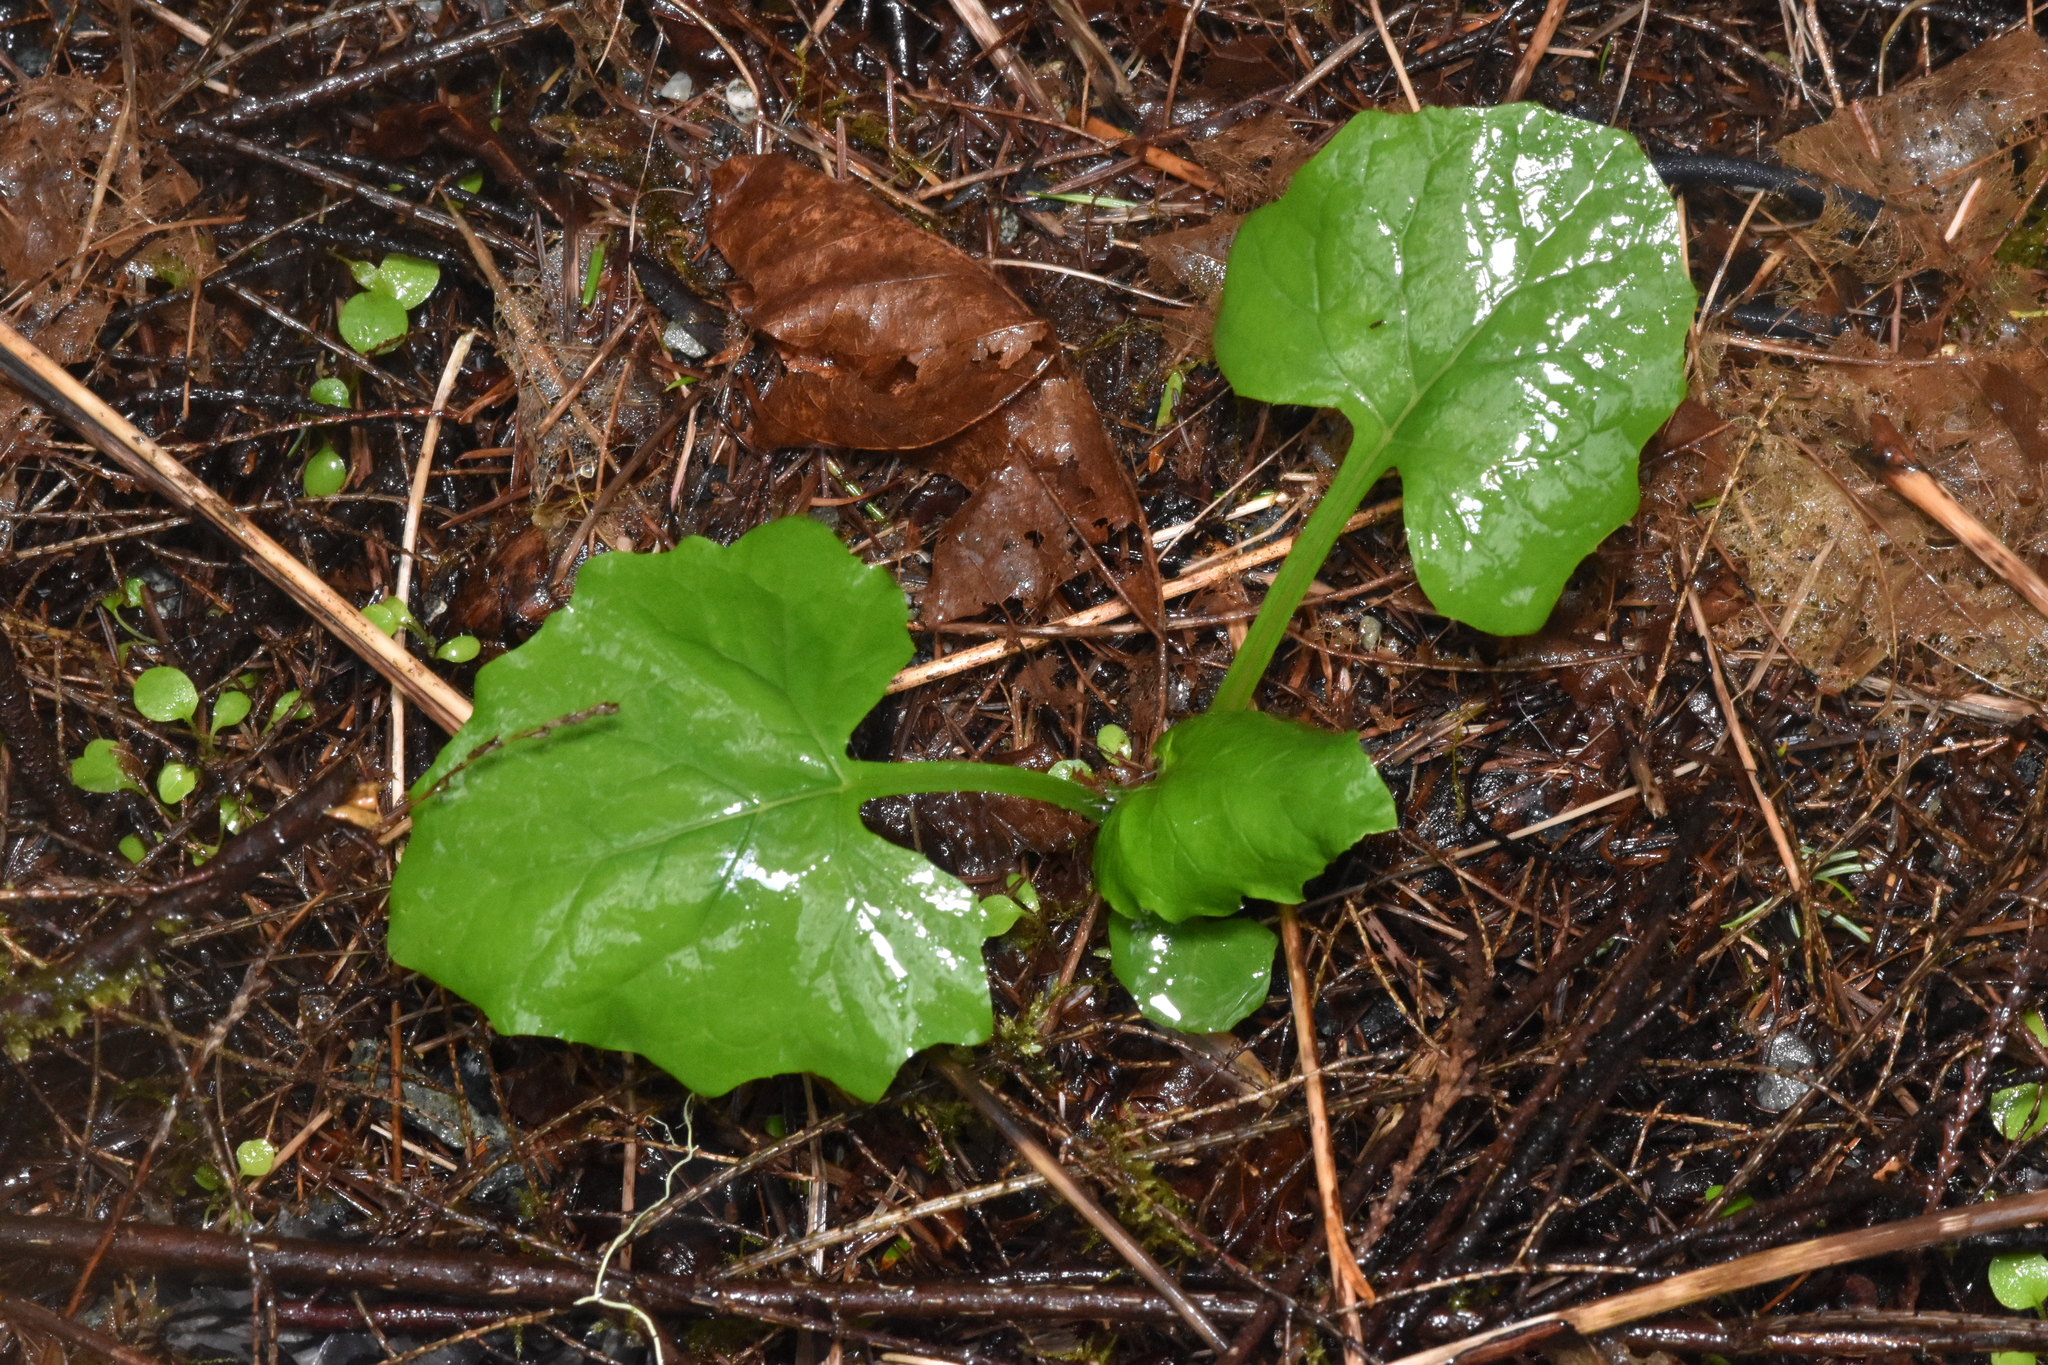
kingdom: Plantae
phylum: Tracheophyta
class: Magnoliopsida
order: Asterales
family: Asteraceae
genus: Adenocaulon
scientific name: Adenocaulon bicolor
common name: Trailplant
